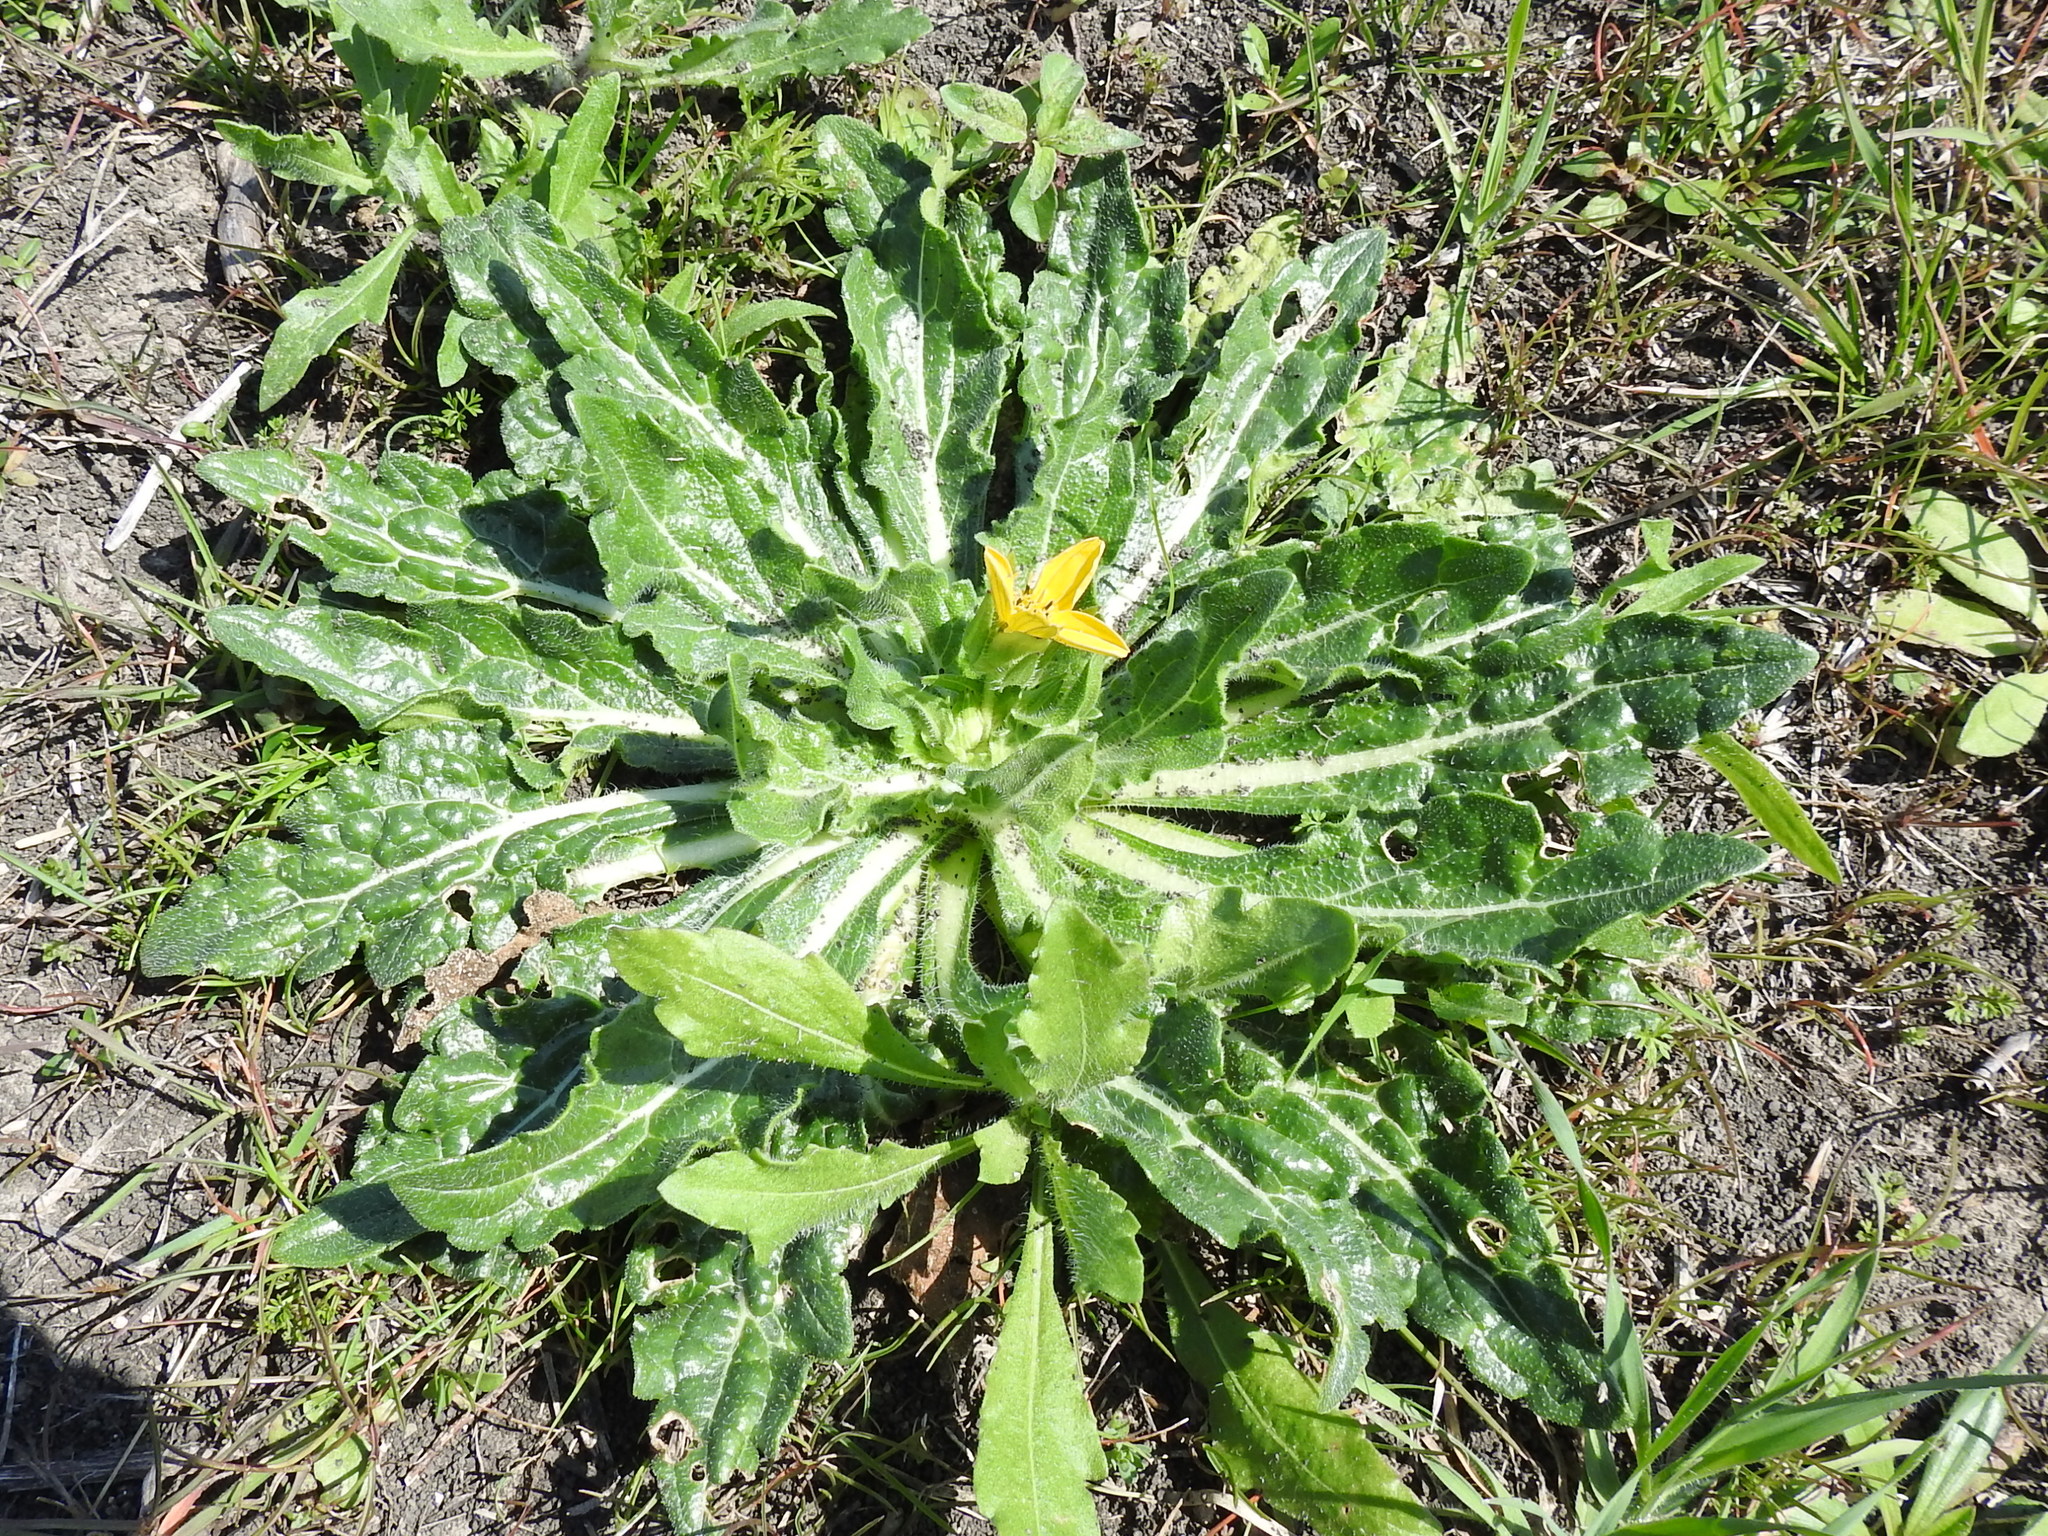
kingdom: Plantae
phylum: Tracheophyta
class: Magnoliopsida
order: Asterales
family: Asteraceae
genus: Lindheimera
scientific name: Lindheimera texana
